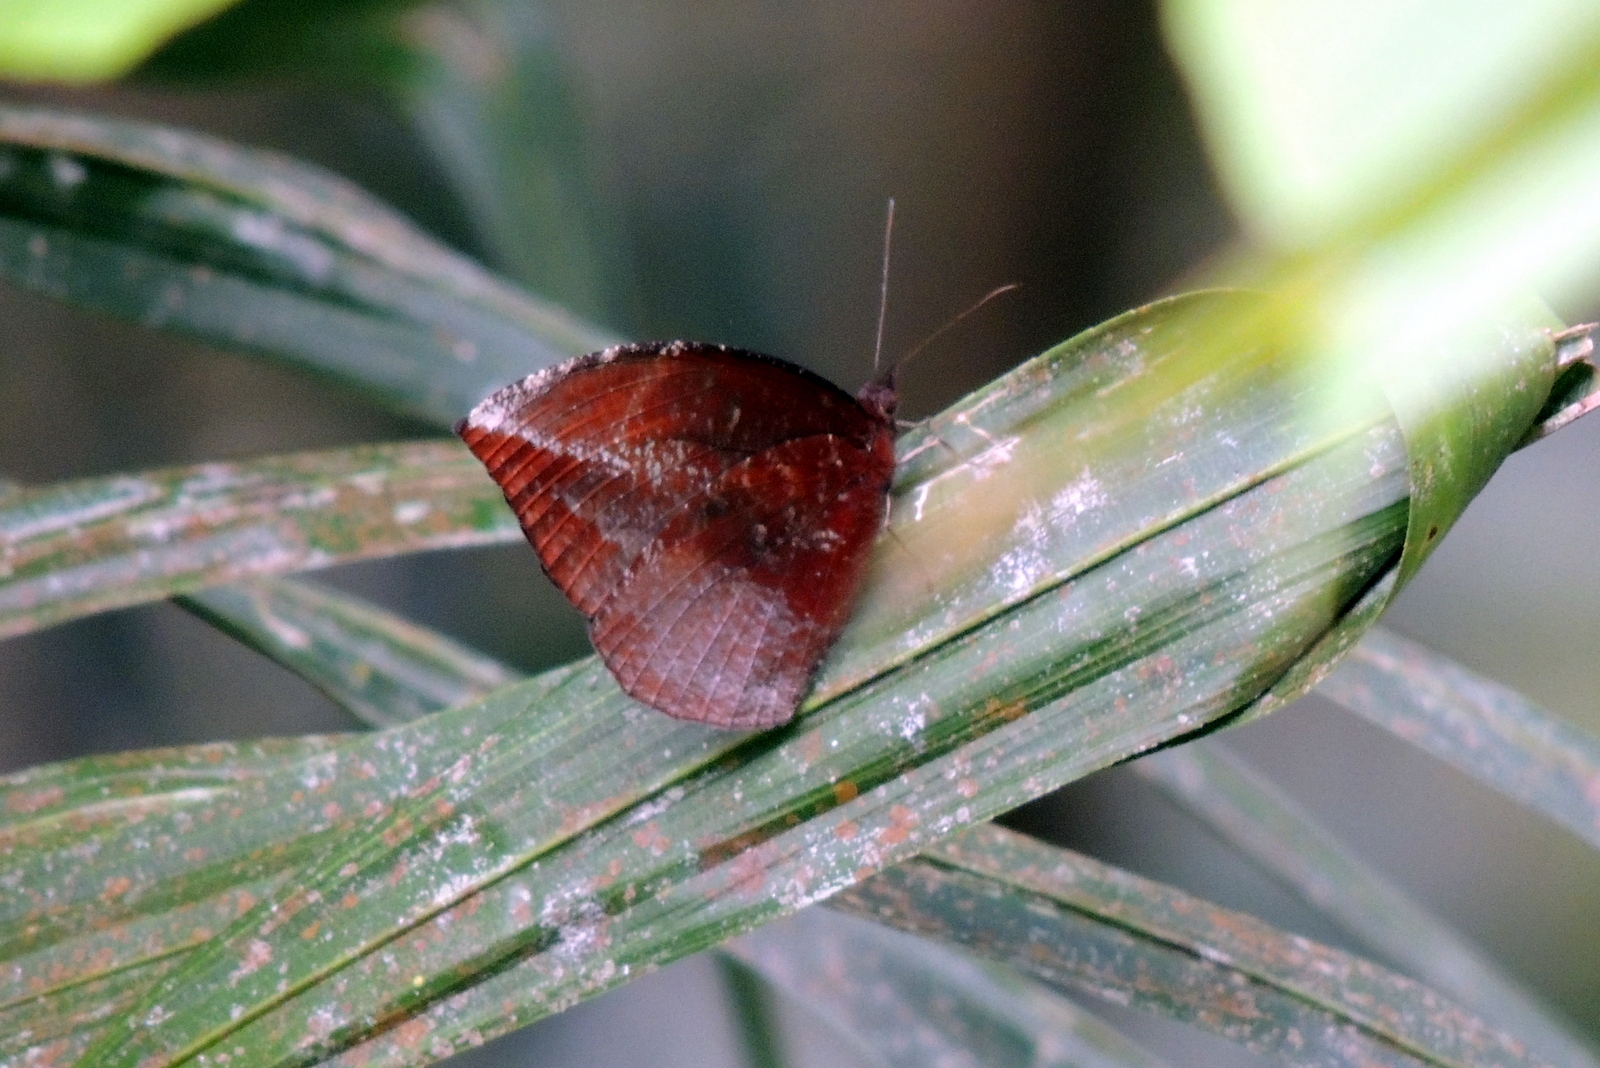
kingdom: Animalia
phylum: Arthropoda
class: Insecta
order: Lepidoptera
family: Nymphalidae
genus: Elymnias
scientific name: Elymnias penanga
